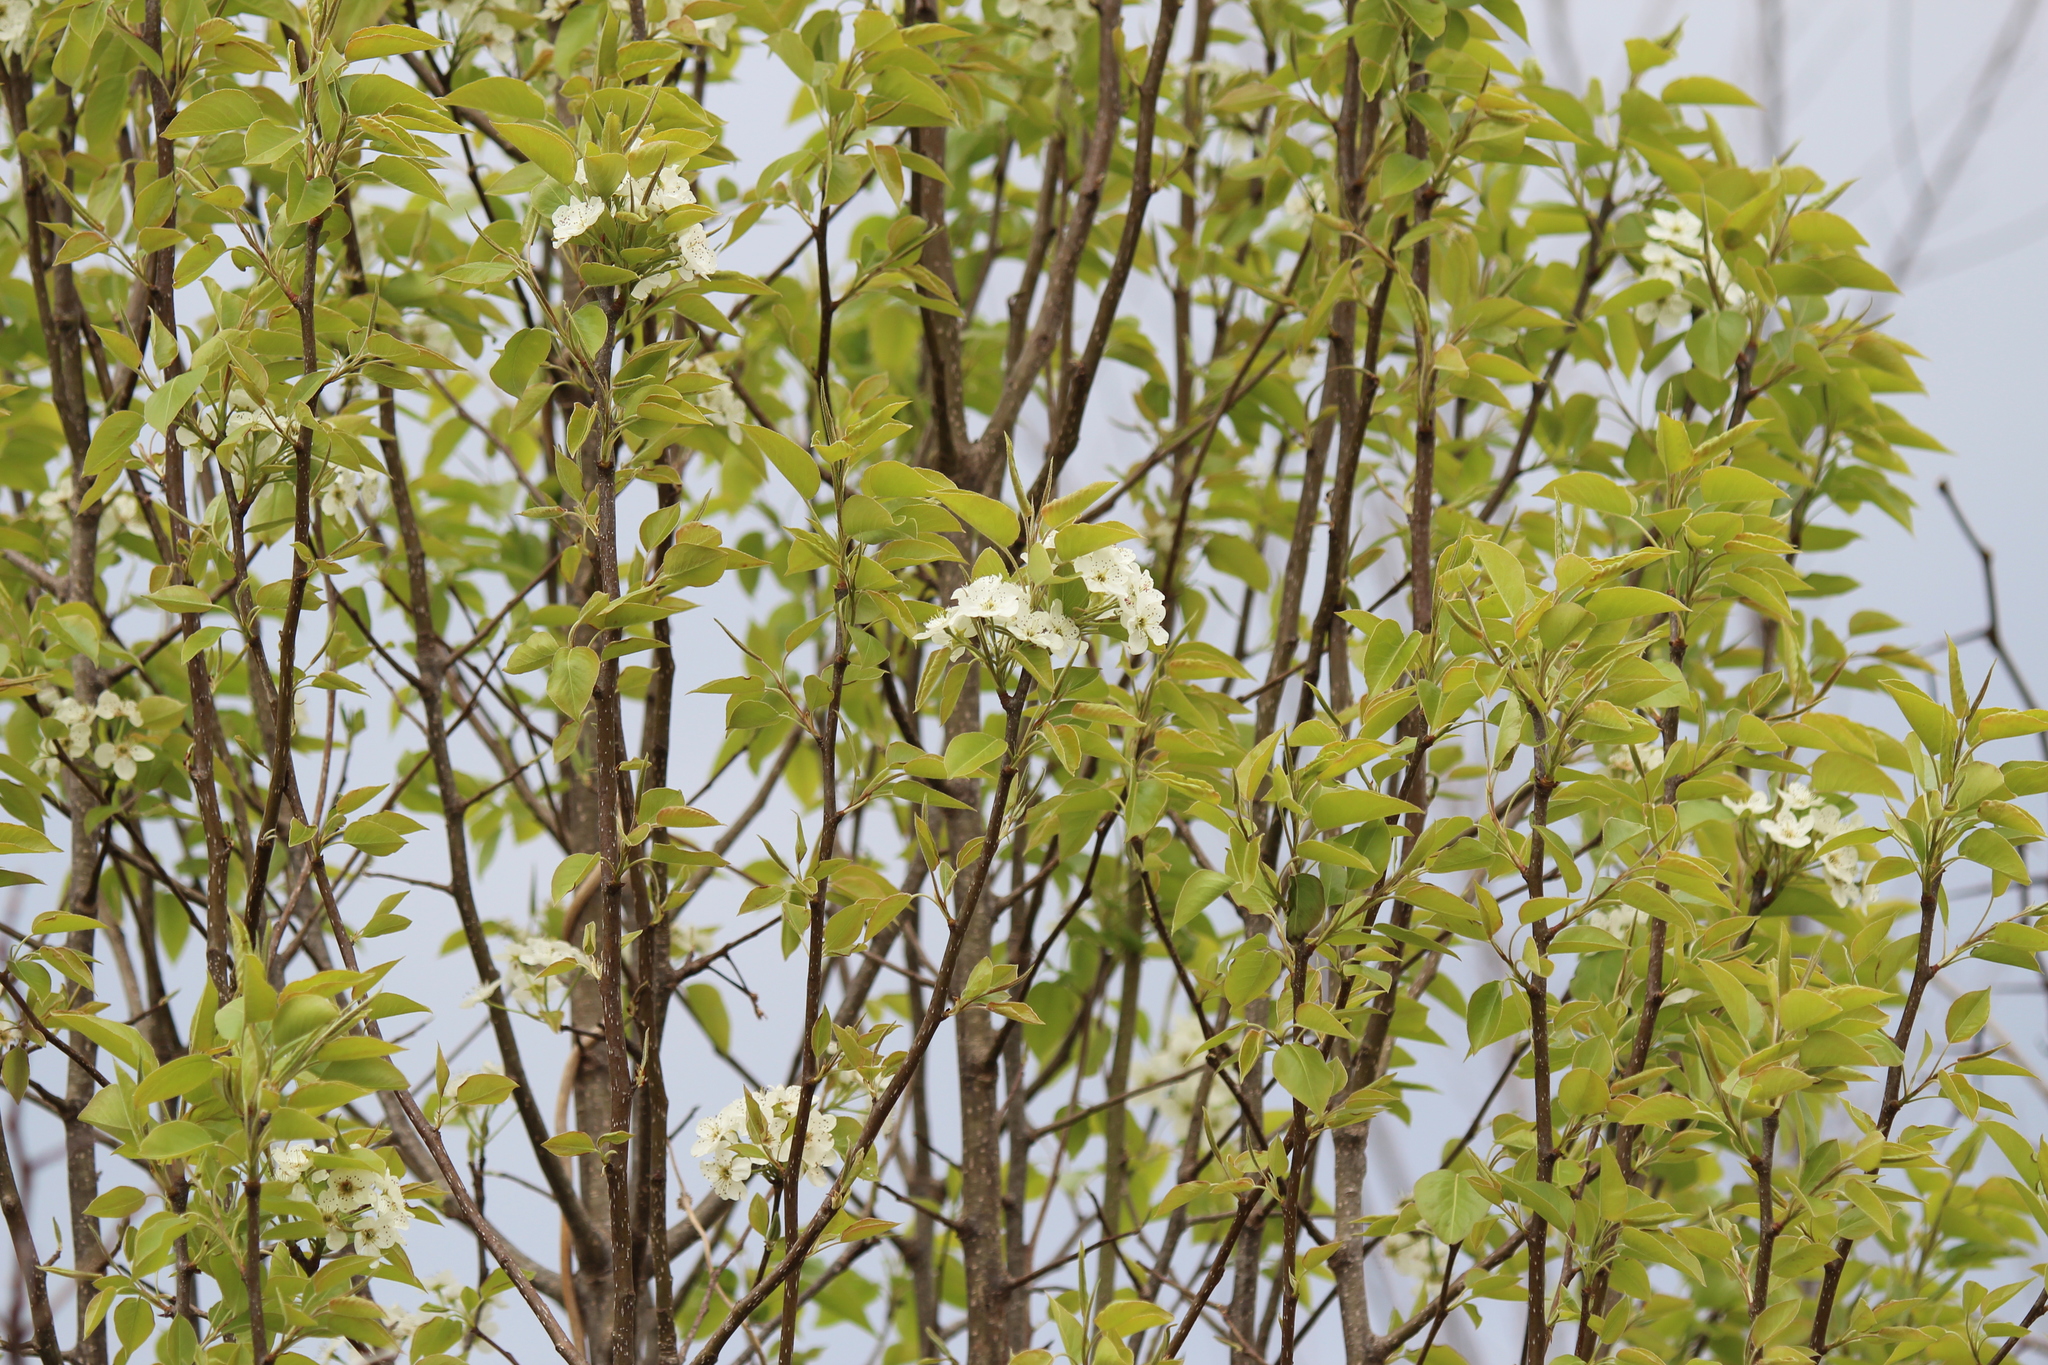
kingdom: Plantae
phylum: Tracheophyta
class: Magnoliopsida
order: Lamiales
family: Bignoniaceae
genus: Campsis
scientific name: Campsis radicans
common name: Trumpet-creeper
